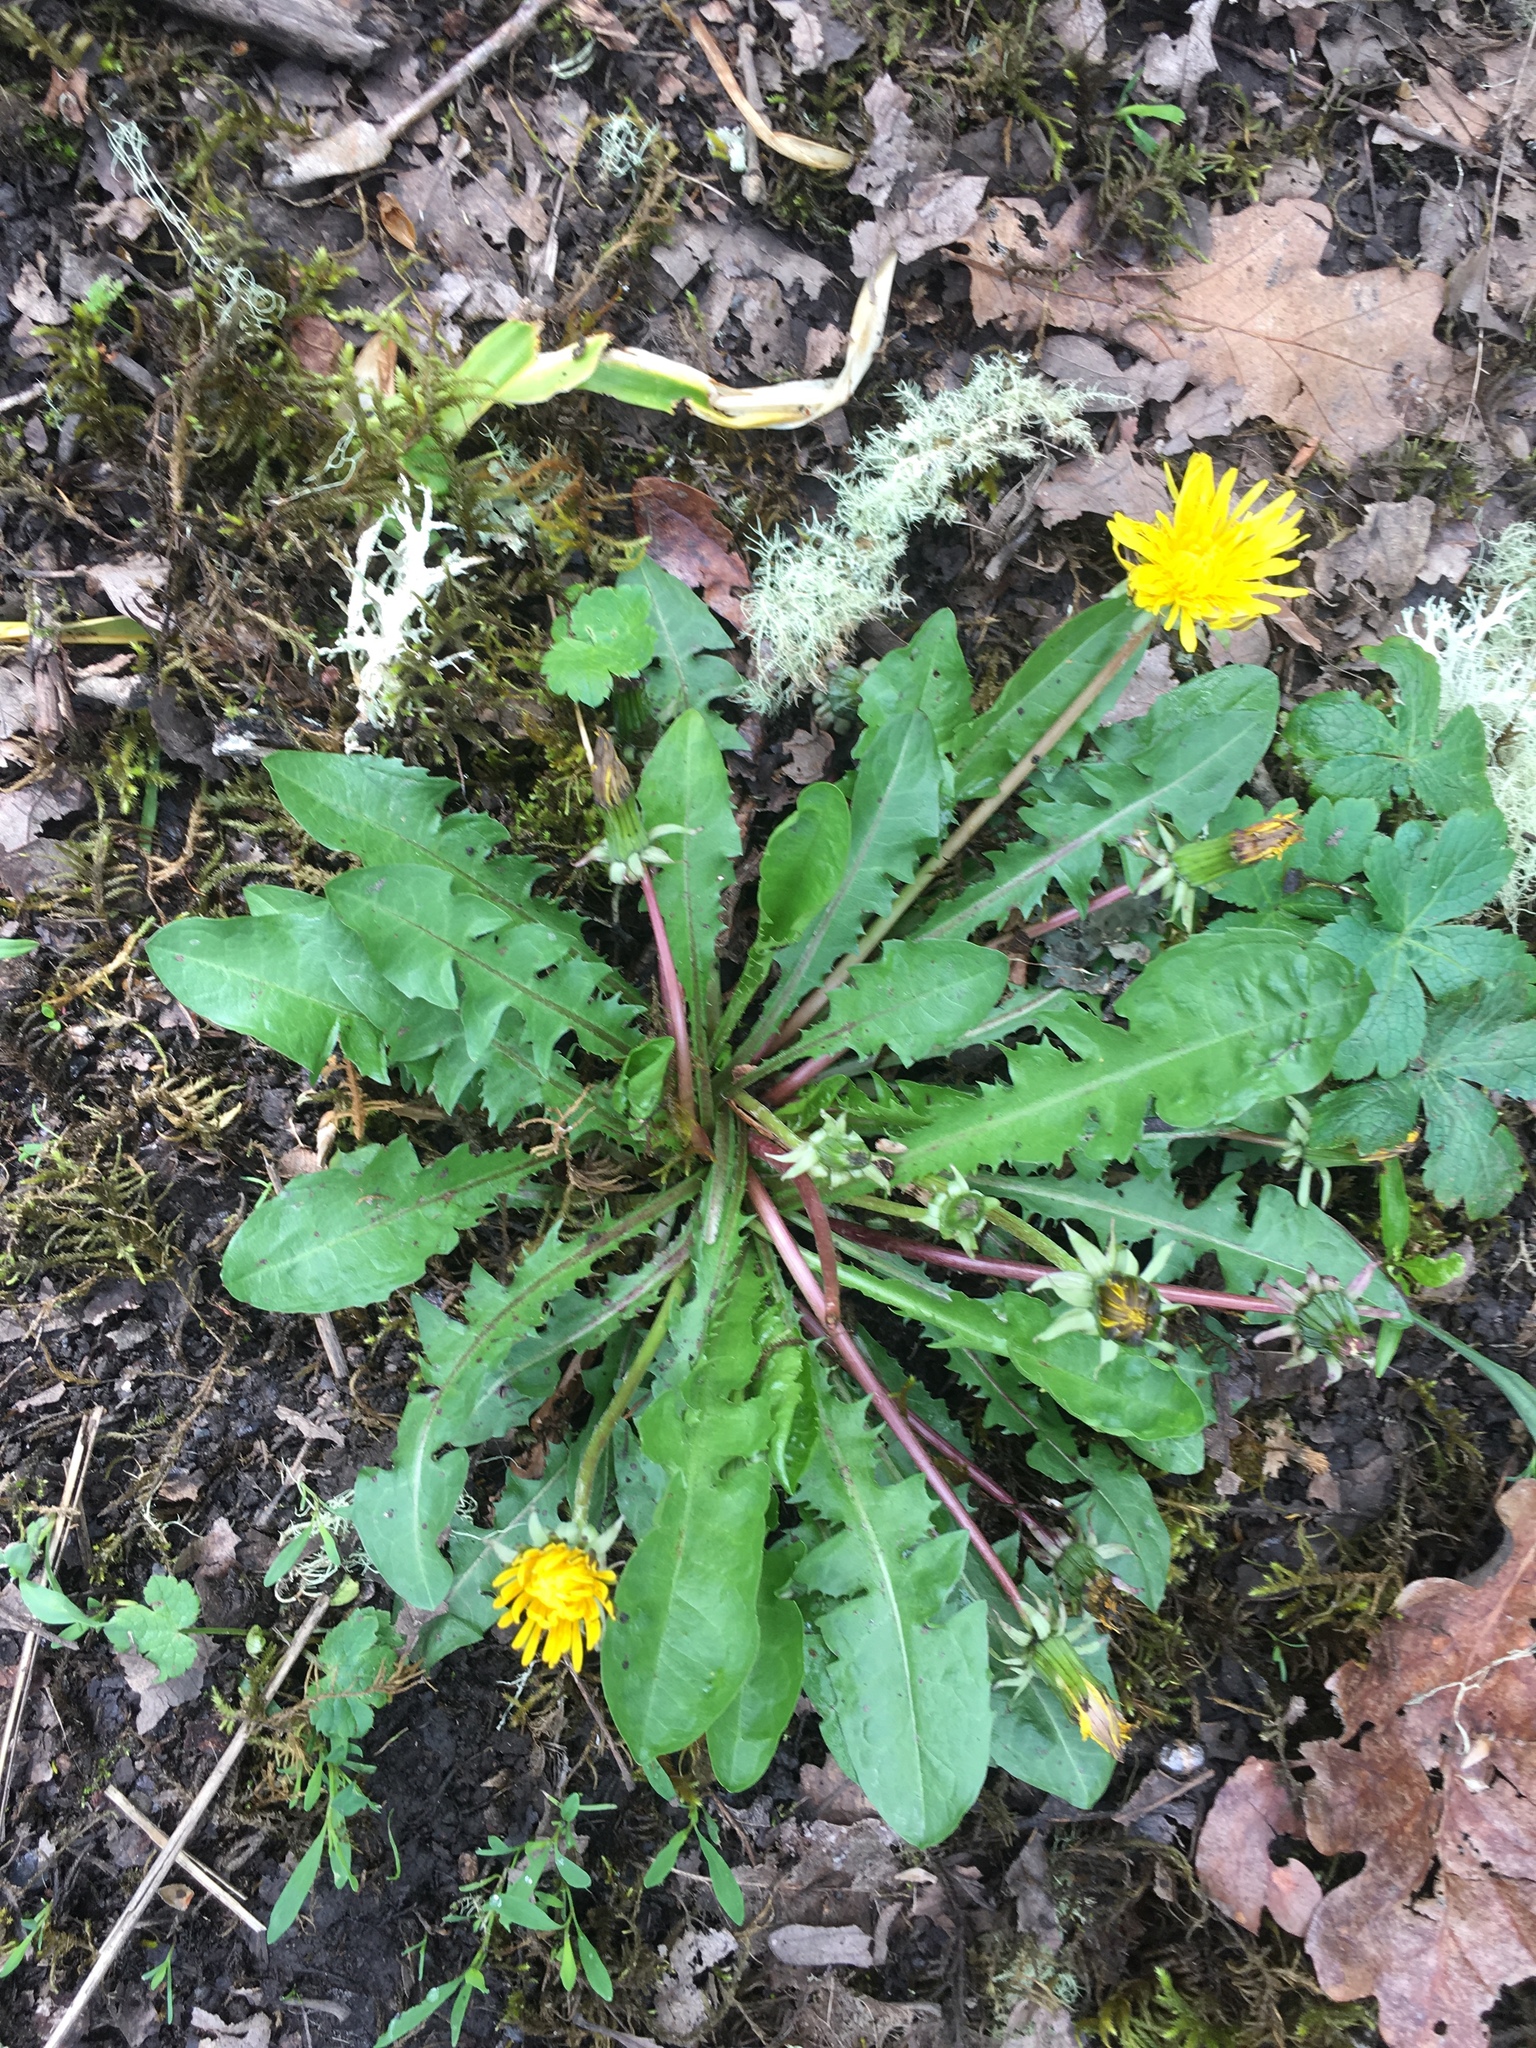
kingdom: Plantae
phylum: Tracheophyta
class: Magnoliopsida
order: Asterales
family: Asteraceae
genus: Taraxacum
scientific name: Taraxacum officinale
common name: Common dandelion
